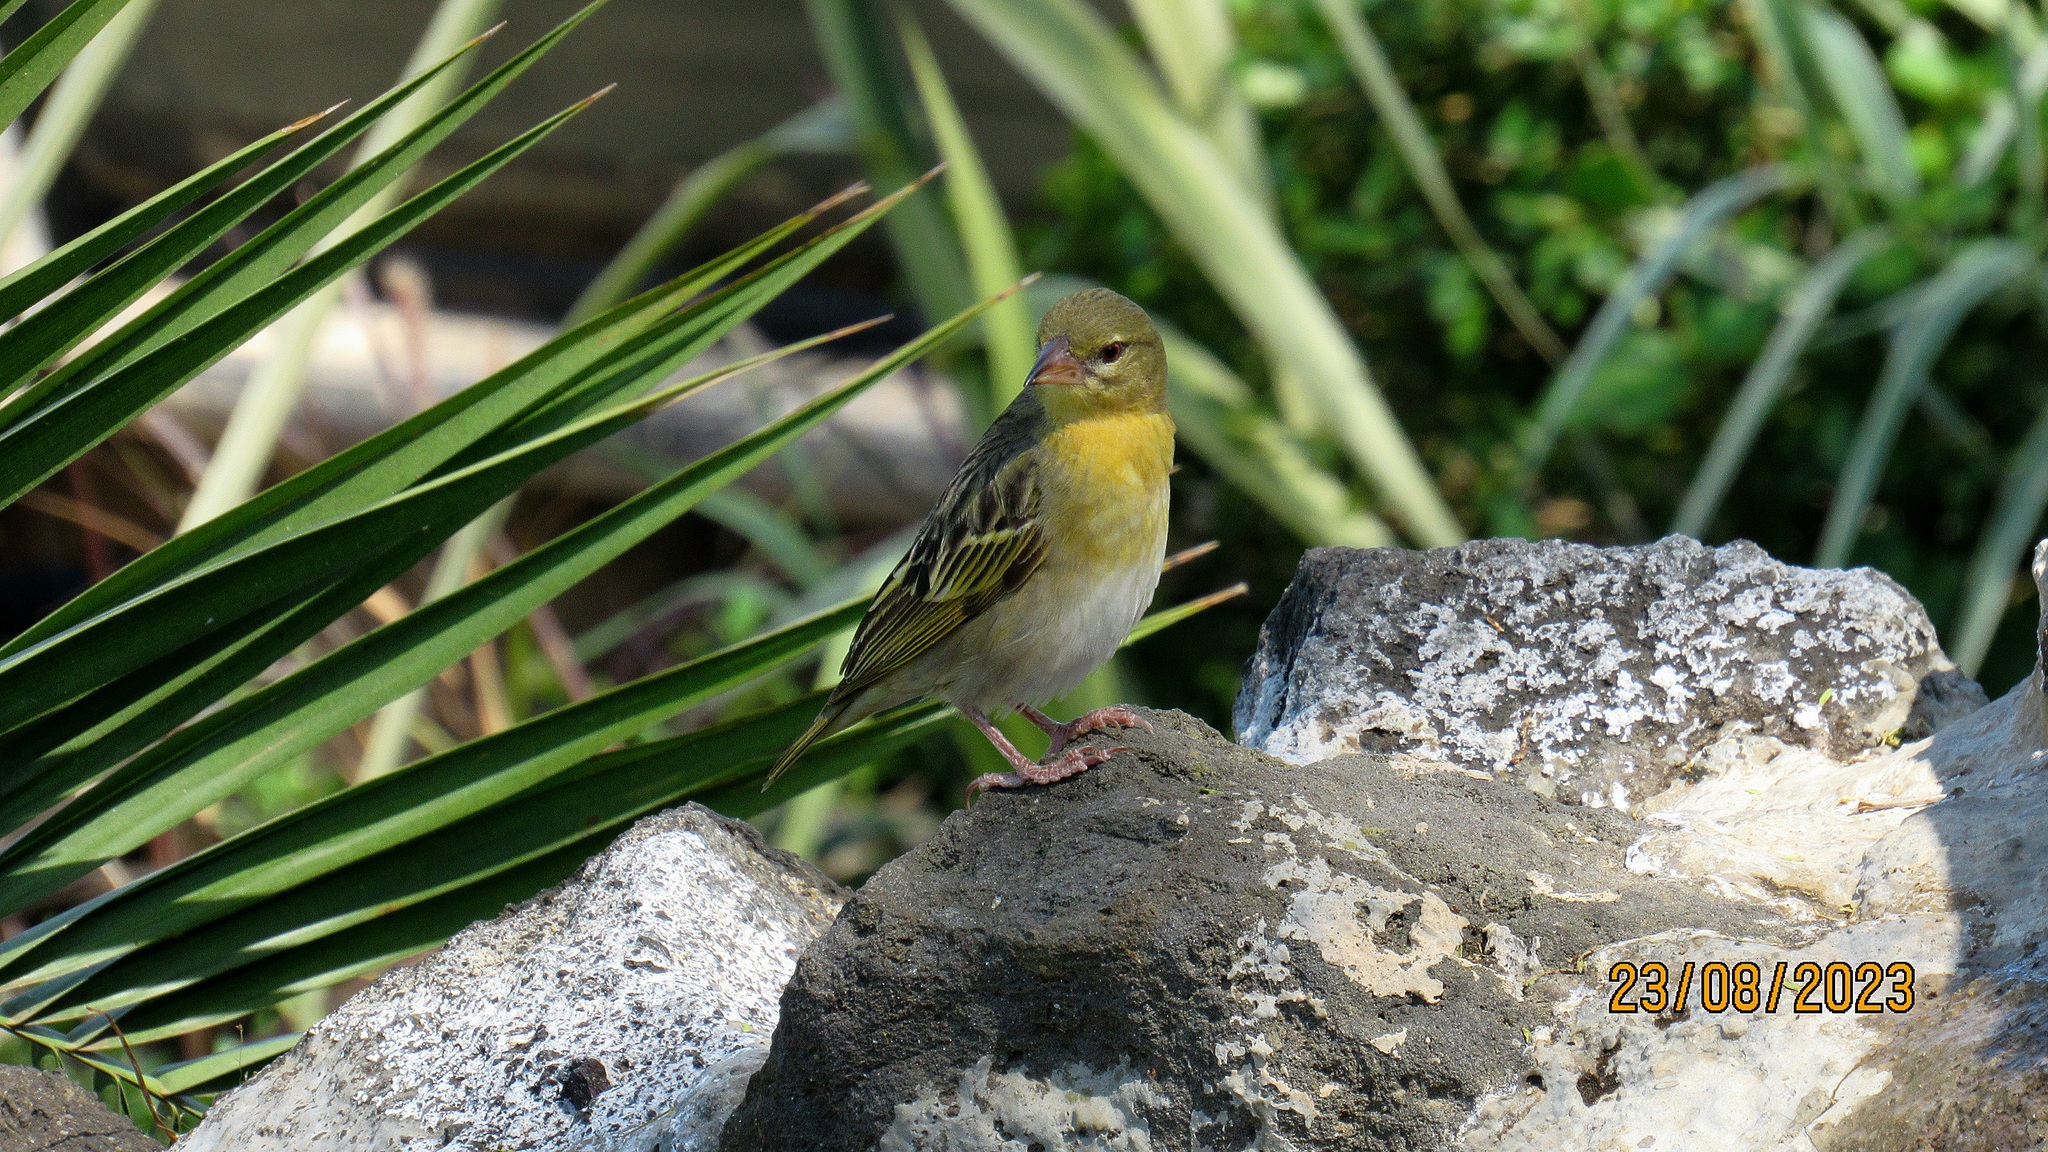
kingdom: Animalia
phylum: Chordata
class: Aves
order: Passeriformes
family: Ploceidae
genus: Ploceus
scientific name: Ploceus vitellinus
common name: Vitelline masked weaver
